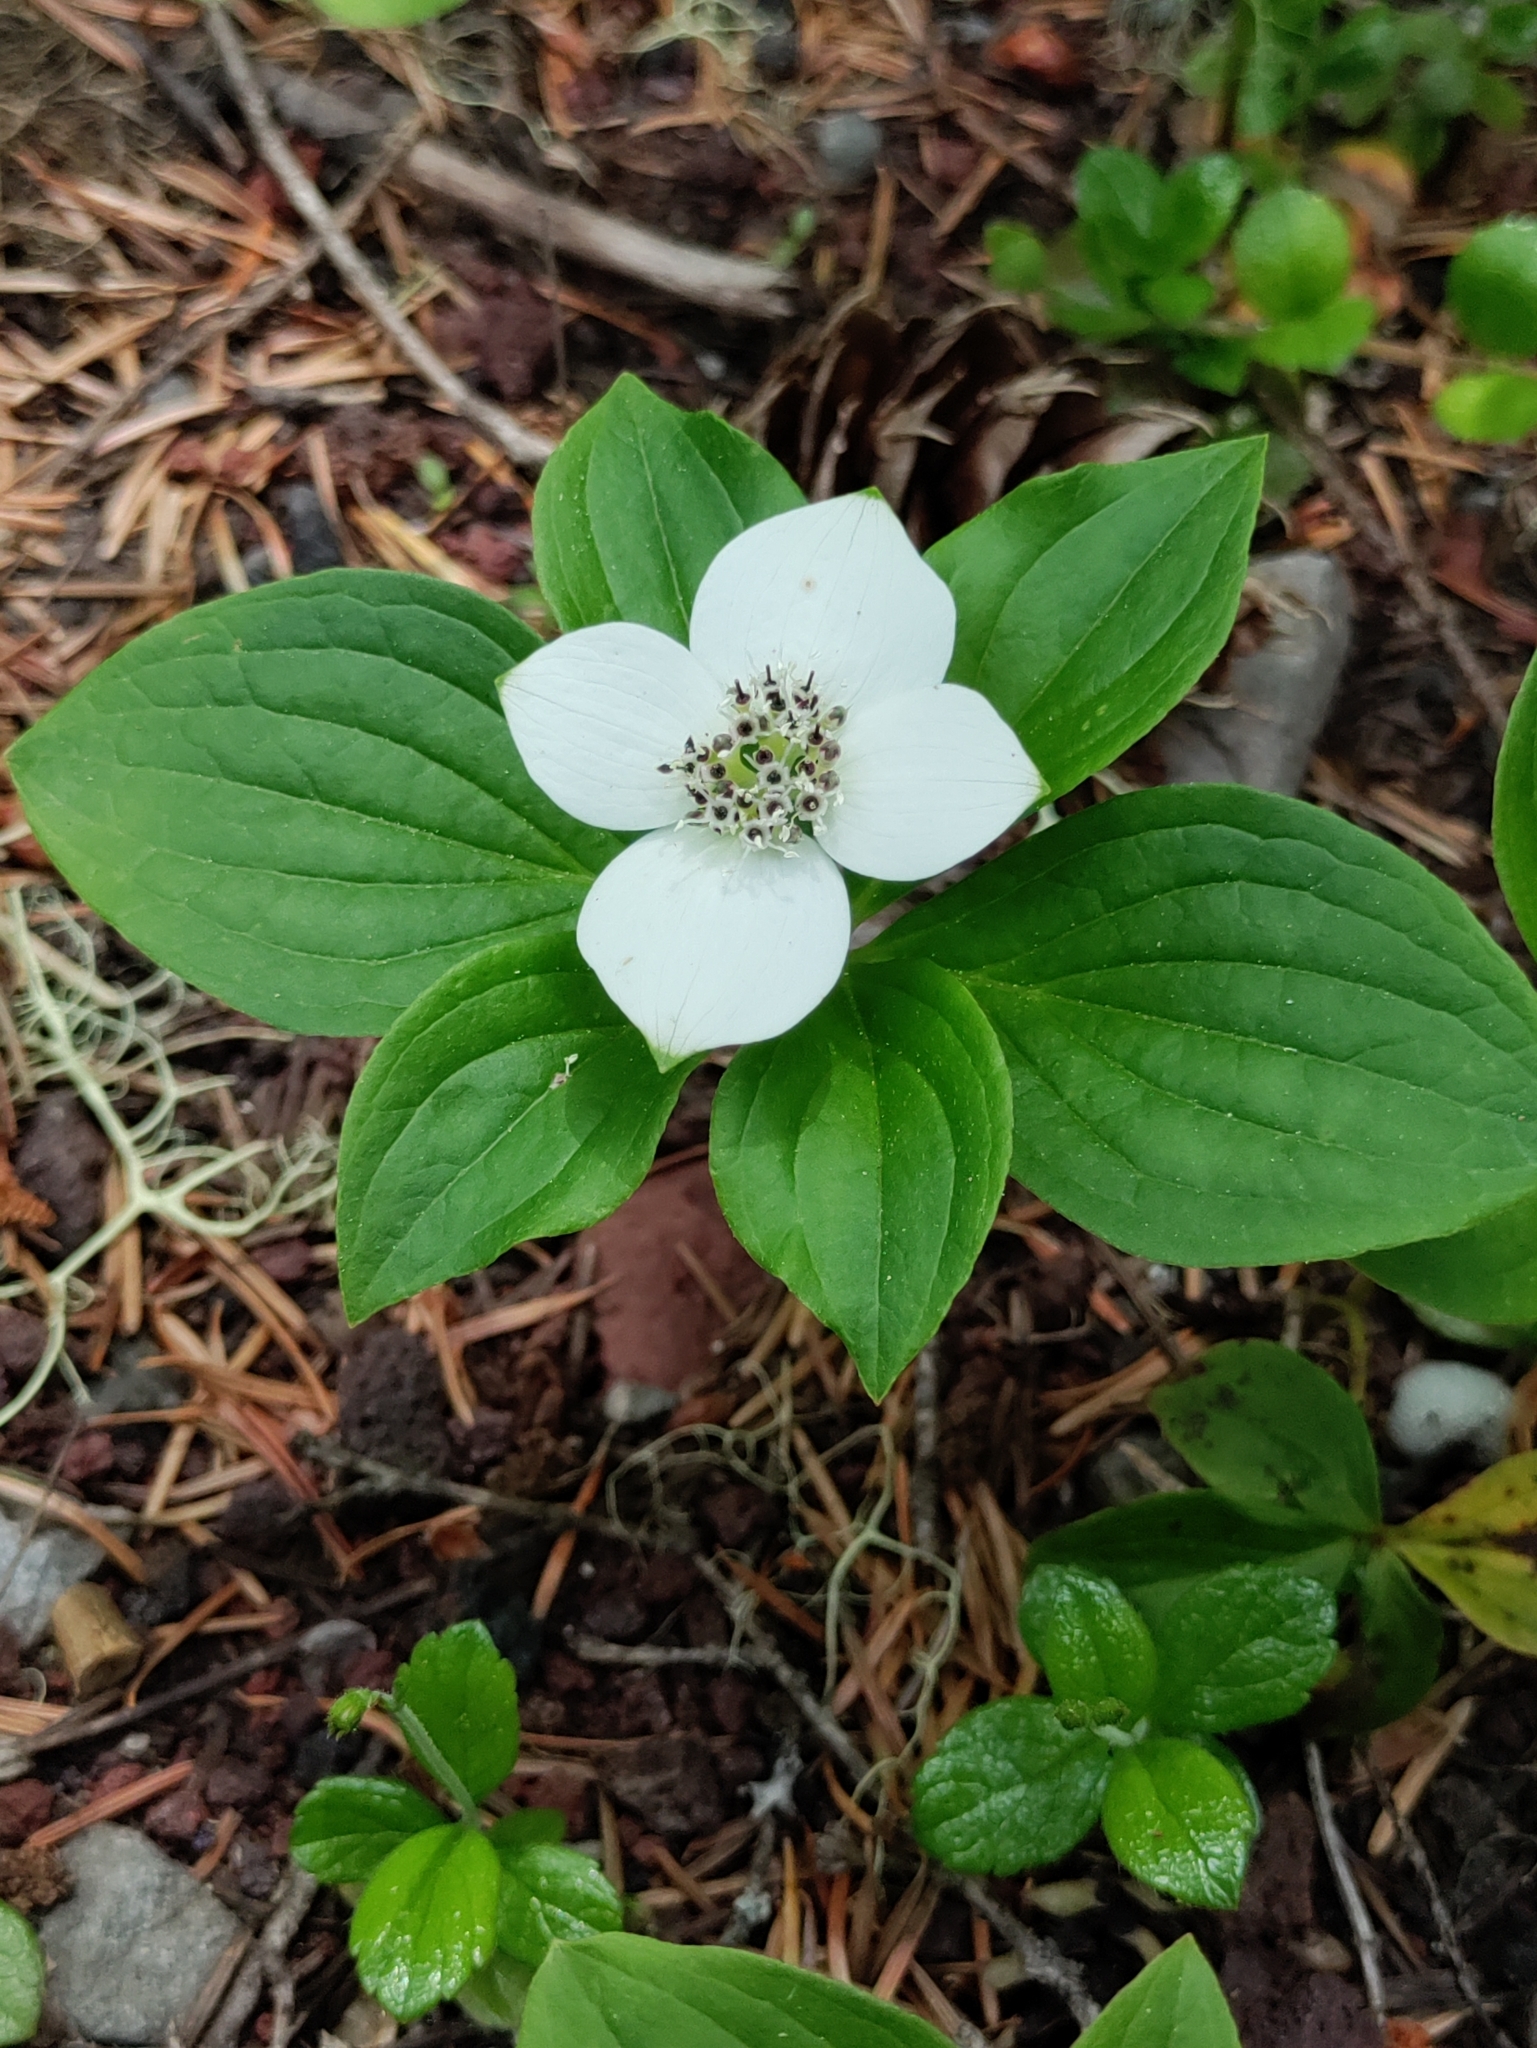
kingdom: Plantae
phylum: Tracheophyta
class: Magnoliopsida
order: Cornales
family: Cornaceae
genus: Cornus
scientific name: Cornus unalaschkensis
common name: Alaska bunchberry
